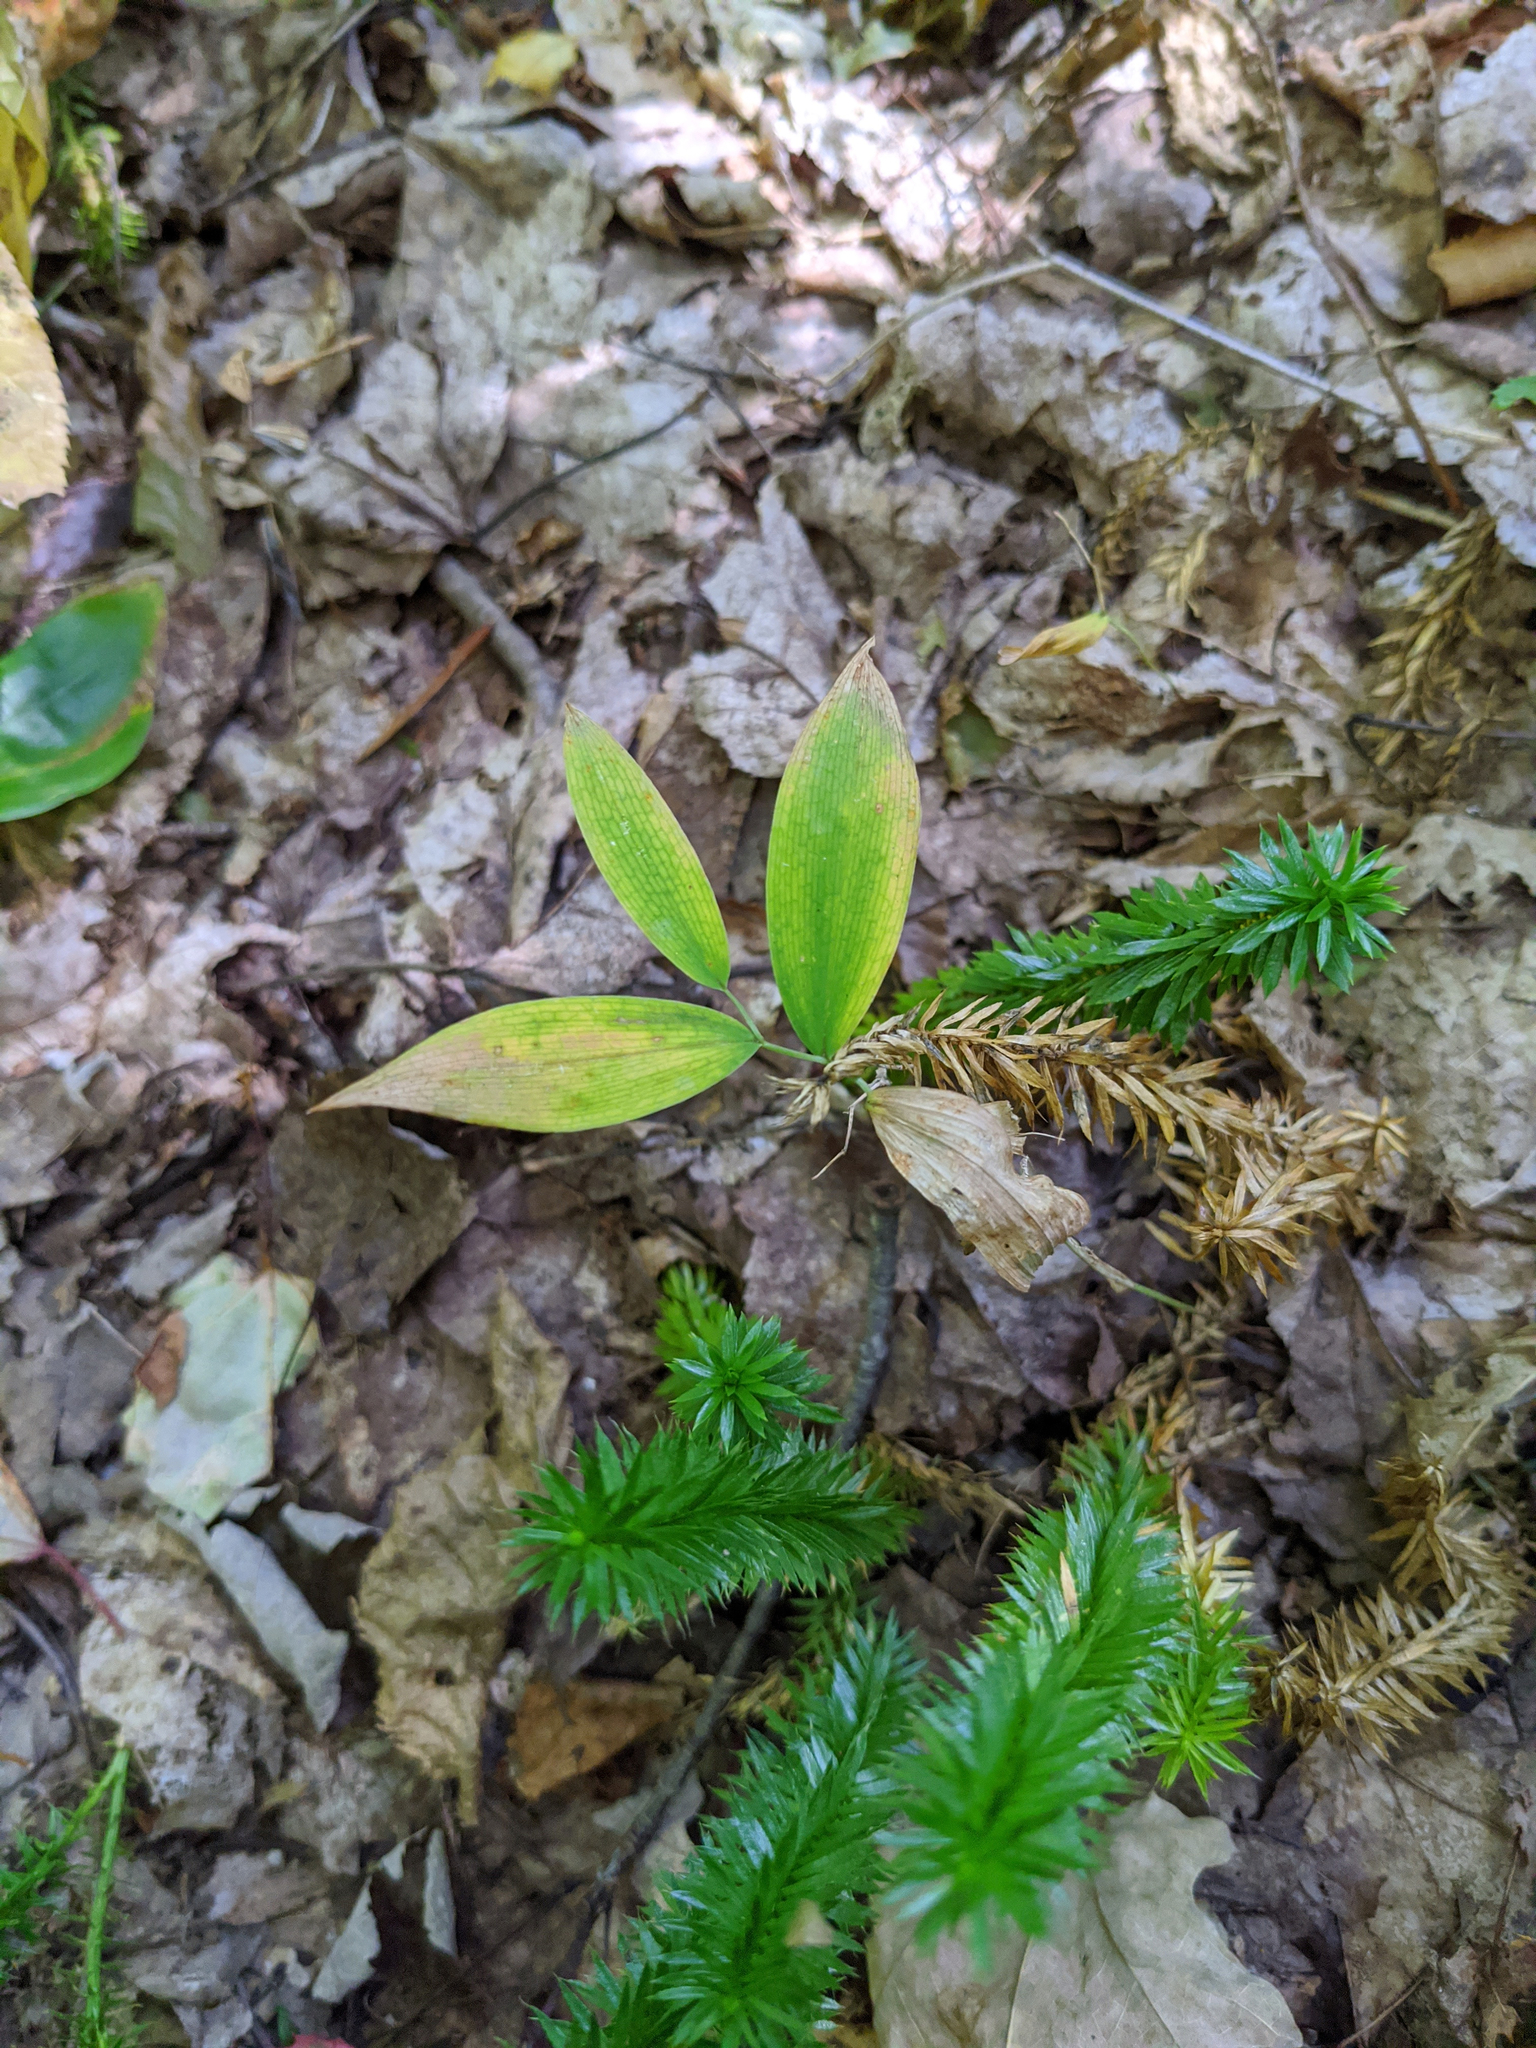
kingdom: Plantae
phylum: Tracheophyta
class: Liliopsida
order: Liliales
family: Colchicaceae
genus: Uvularia
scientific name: Uvularia sessilifolia
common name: Straw-lily
